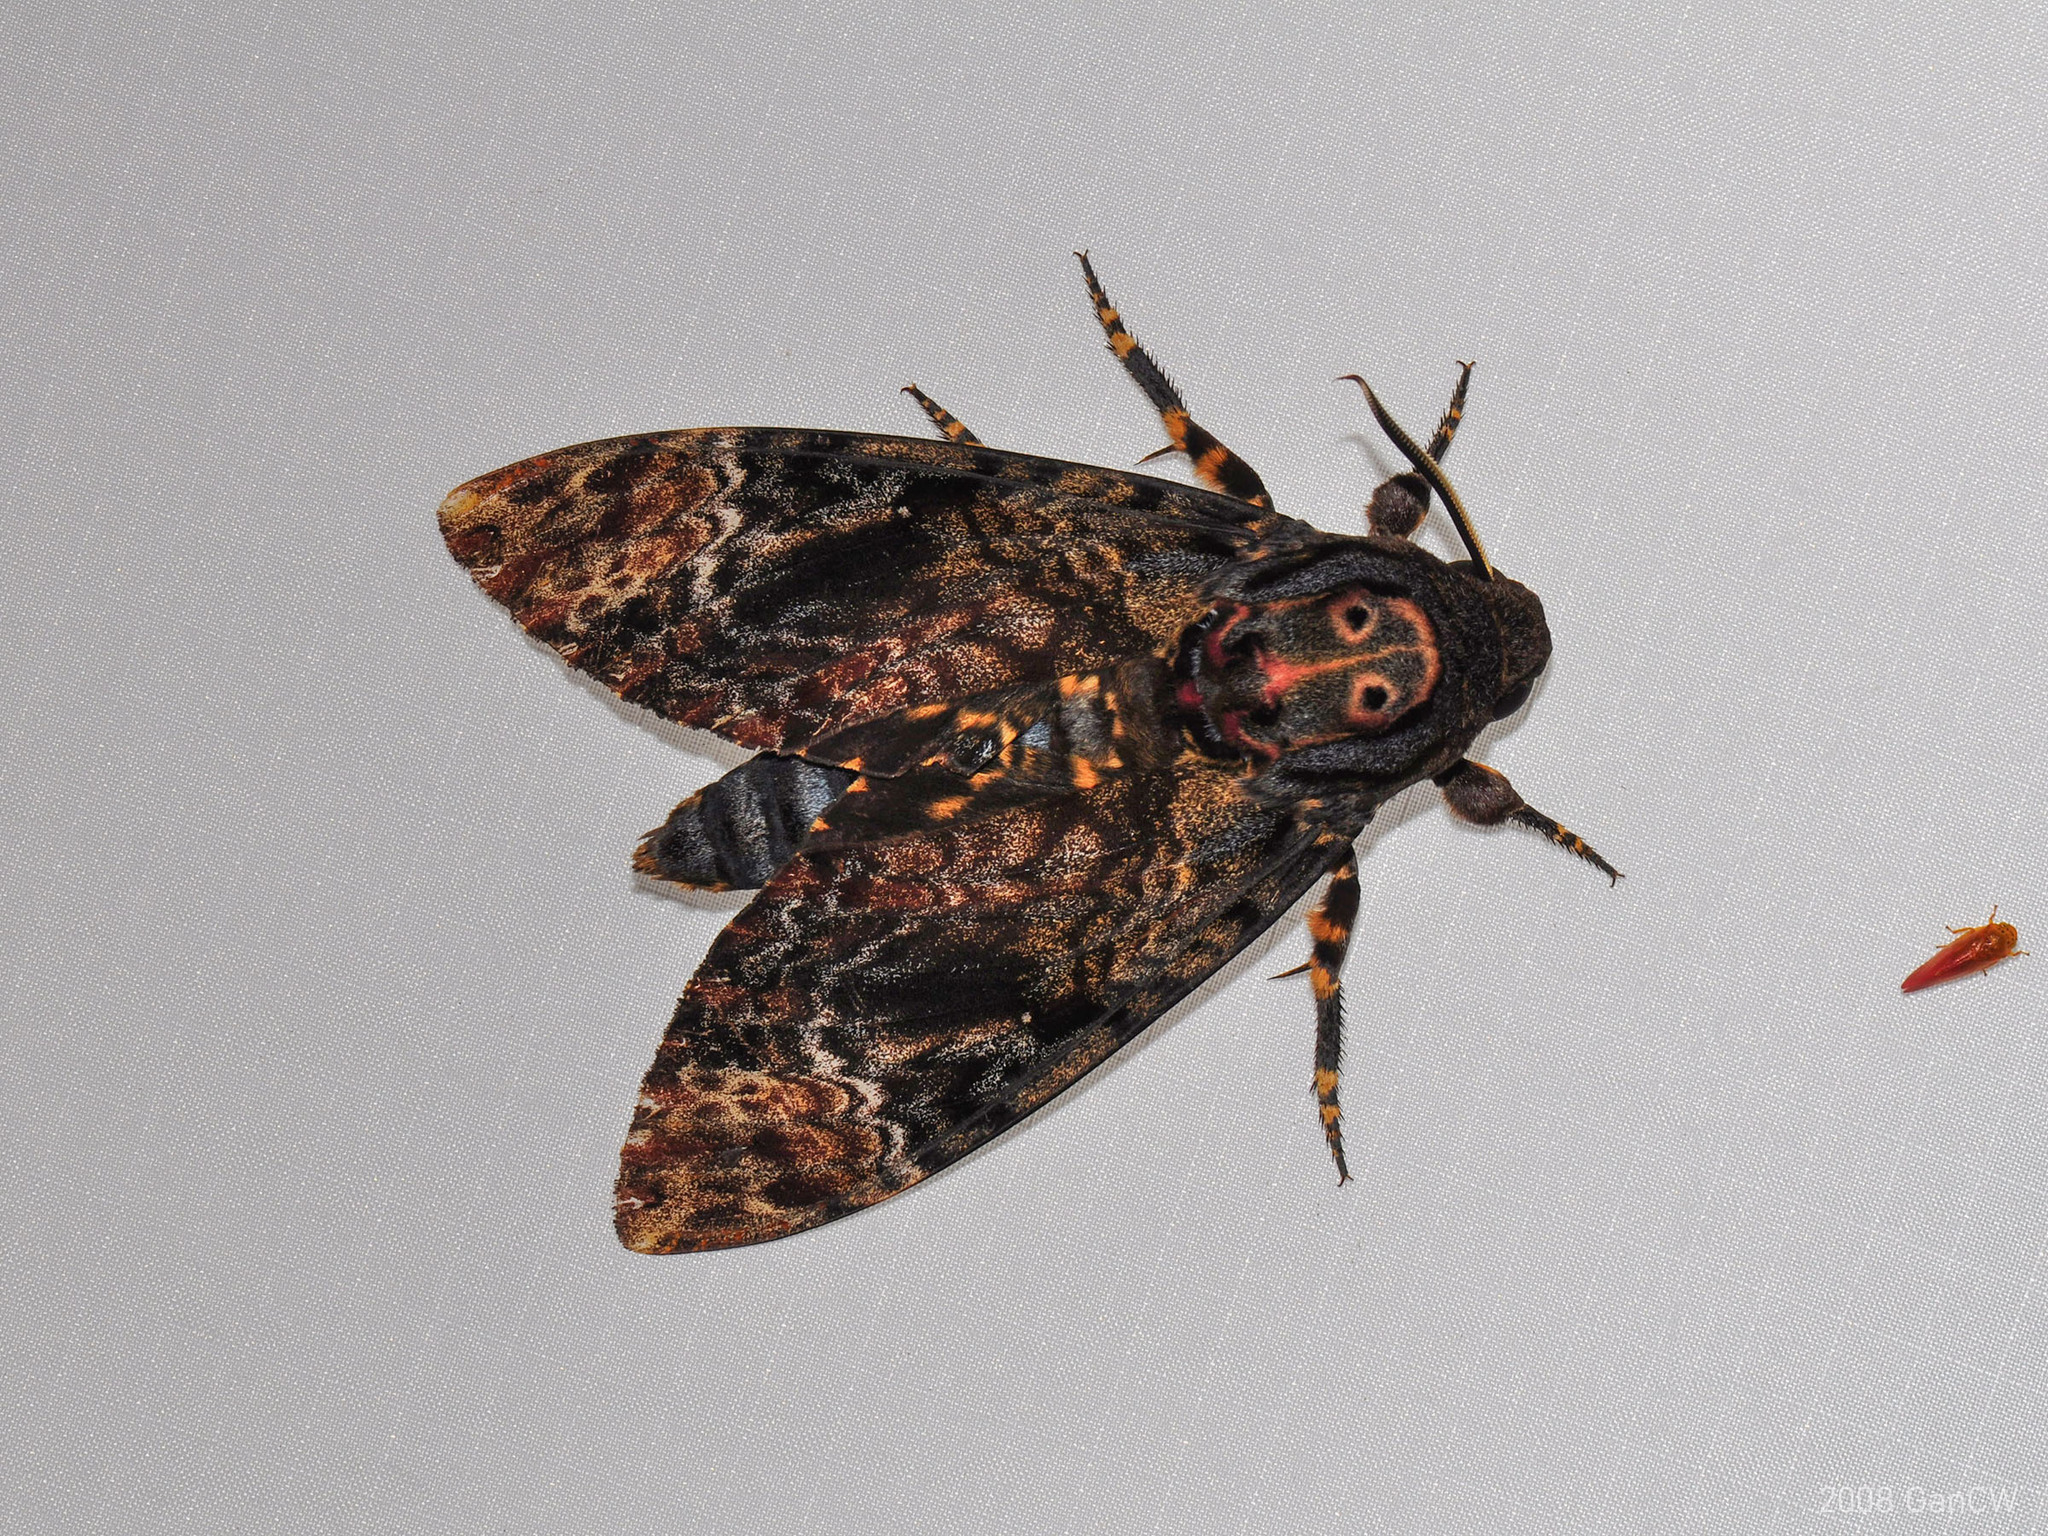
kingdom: Animalia
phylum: Arthropoda
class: Insecta
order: Lepidoptera
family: Sphingidae
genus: Acherontia
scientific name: Acherontia lachesis
